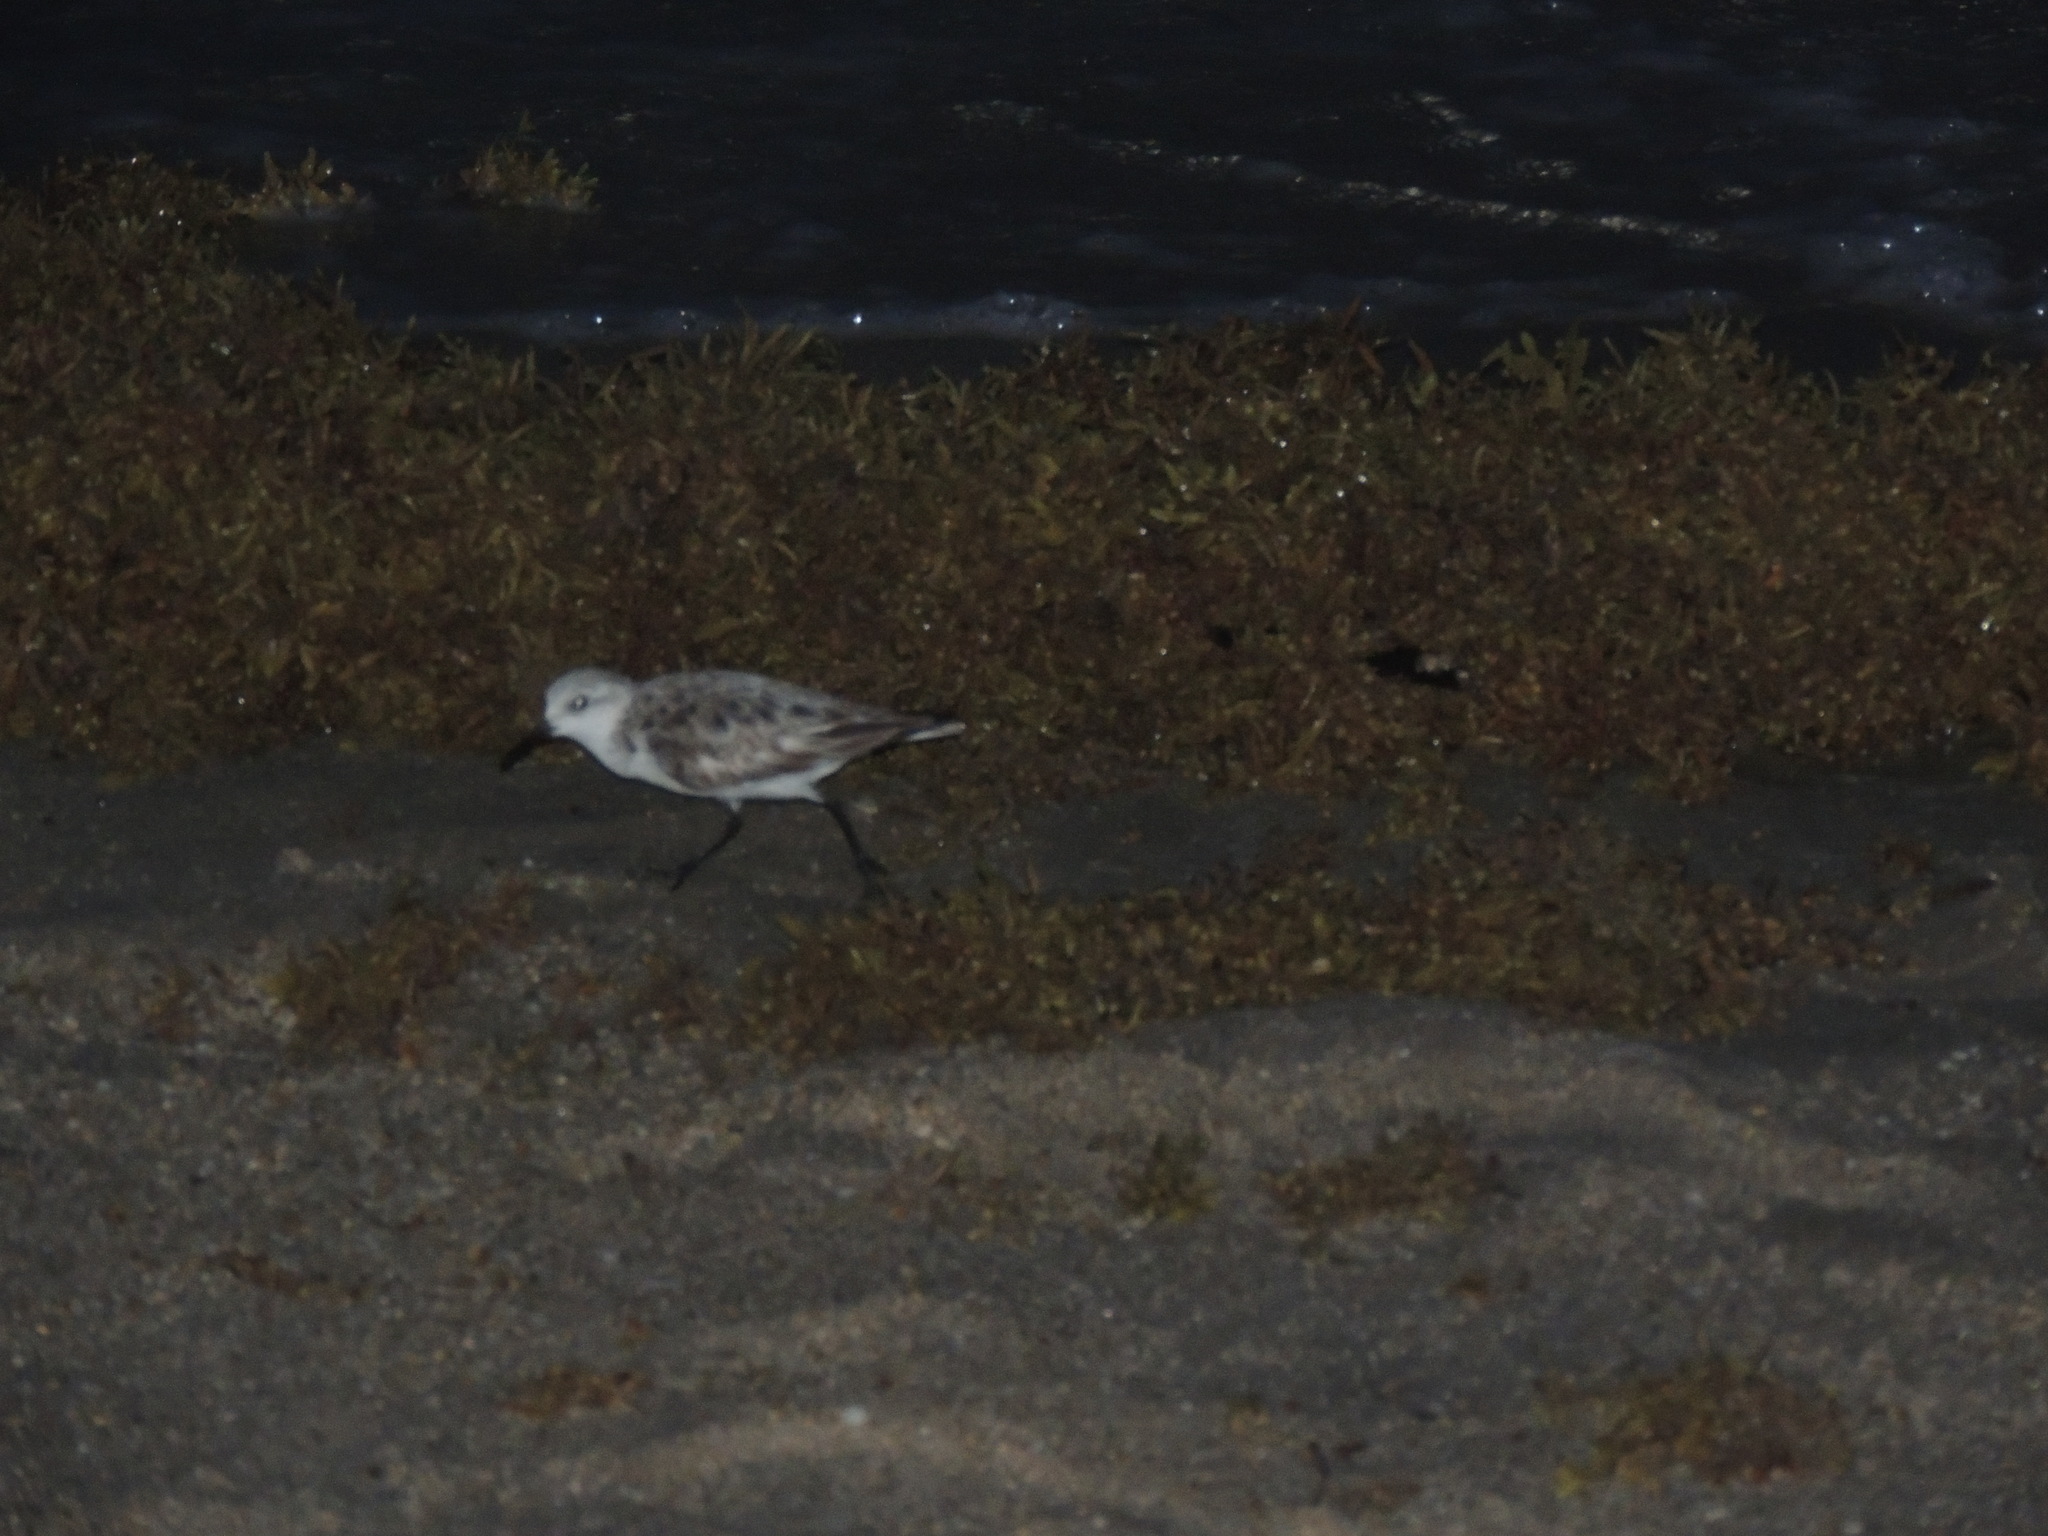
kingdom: Animalia
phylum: Chordata
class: Aves
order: Charadriiformes
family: Scolopacidae
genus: Calidris
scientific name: Calidris alba
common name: Sanderling
